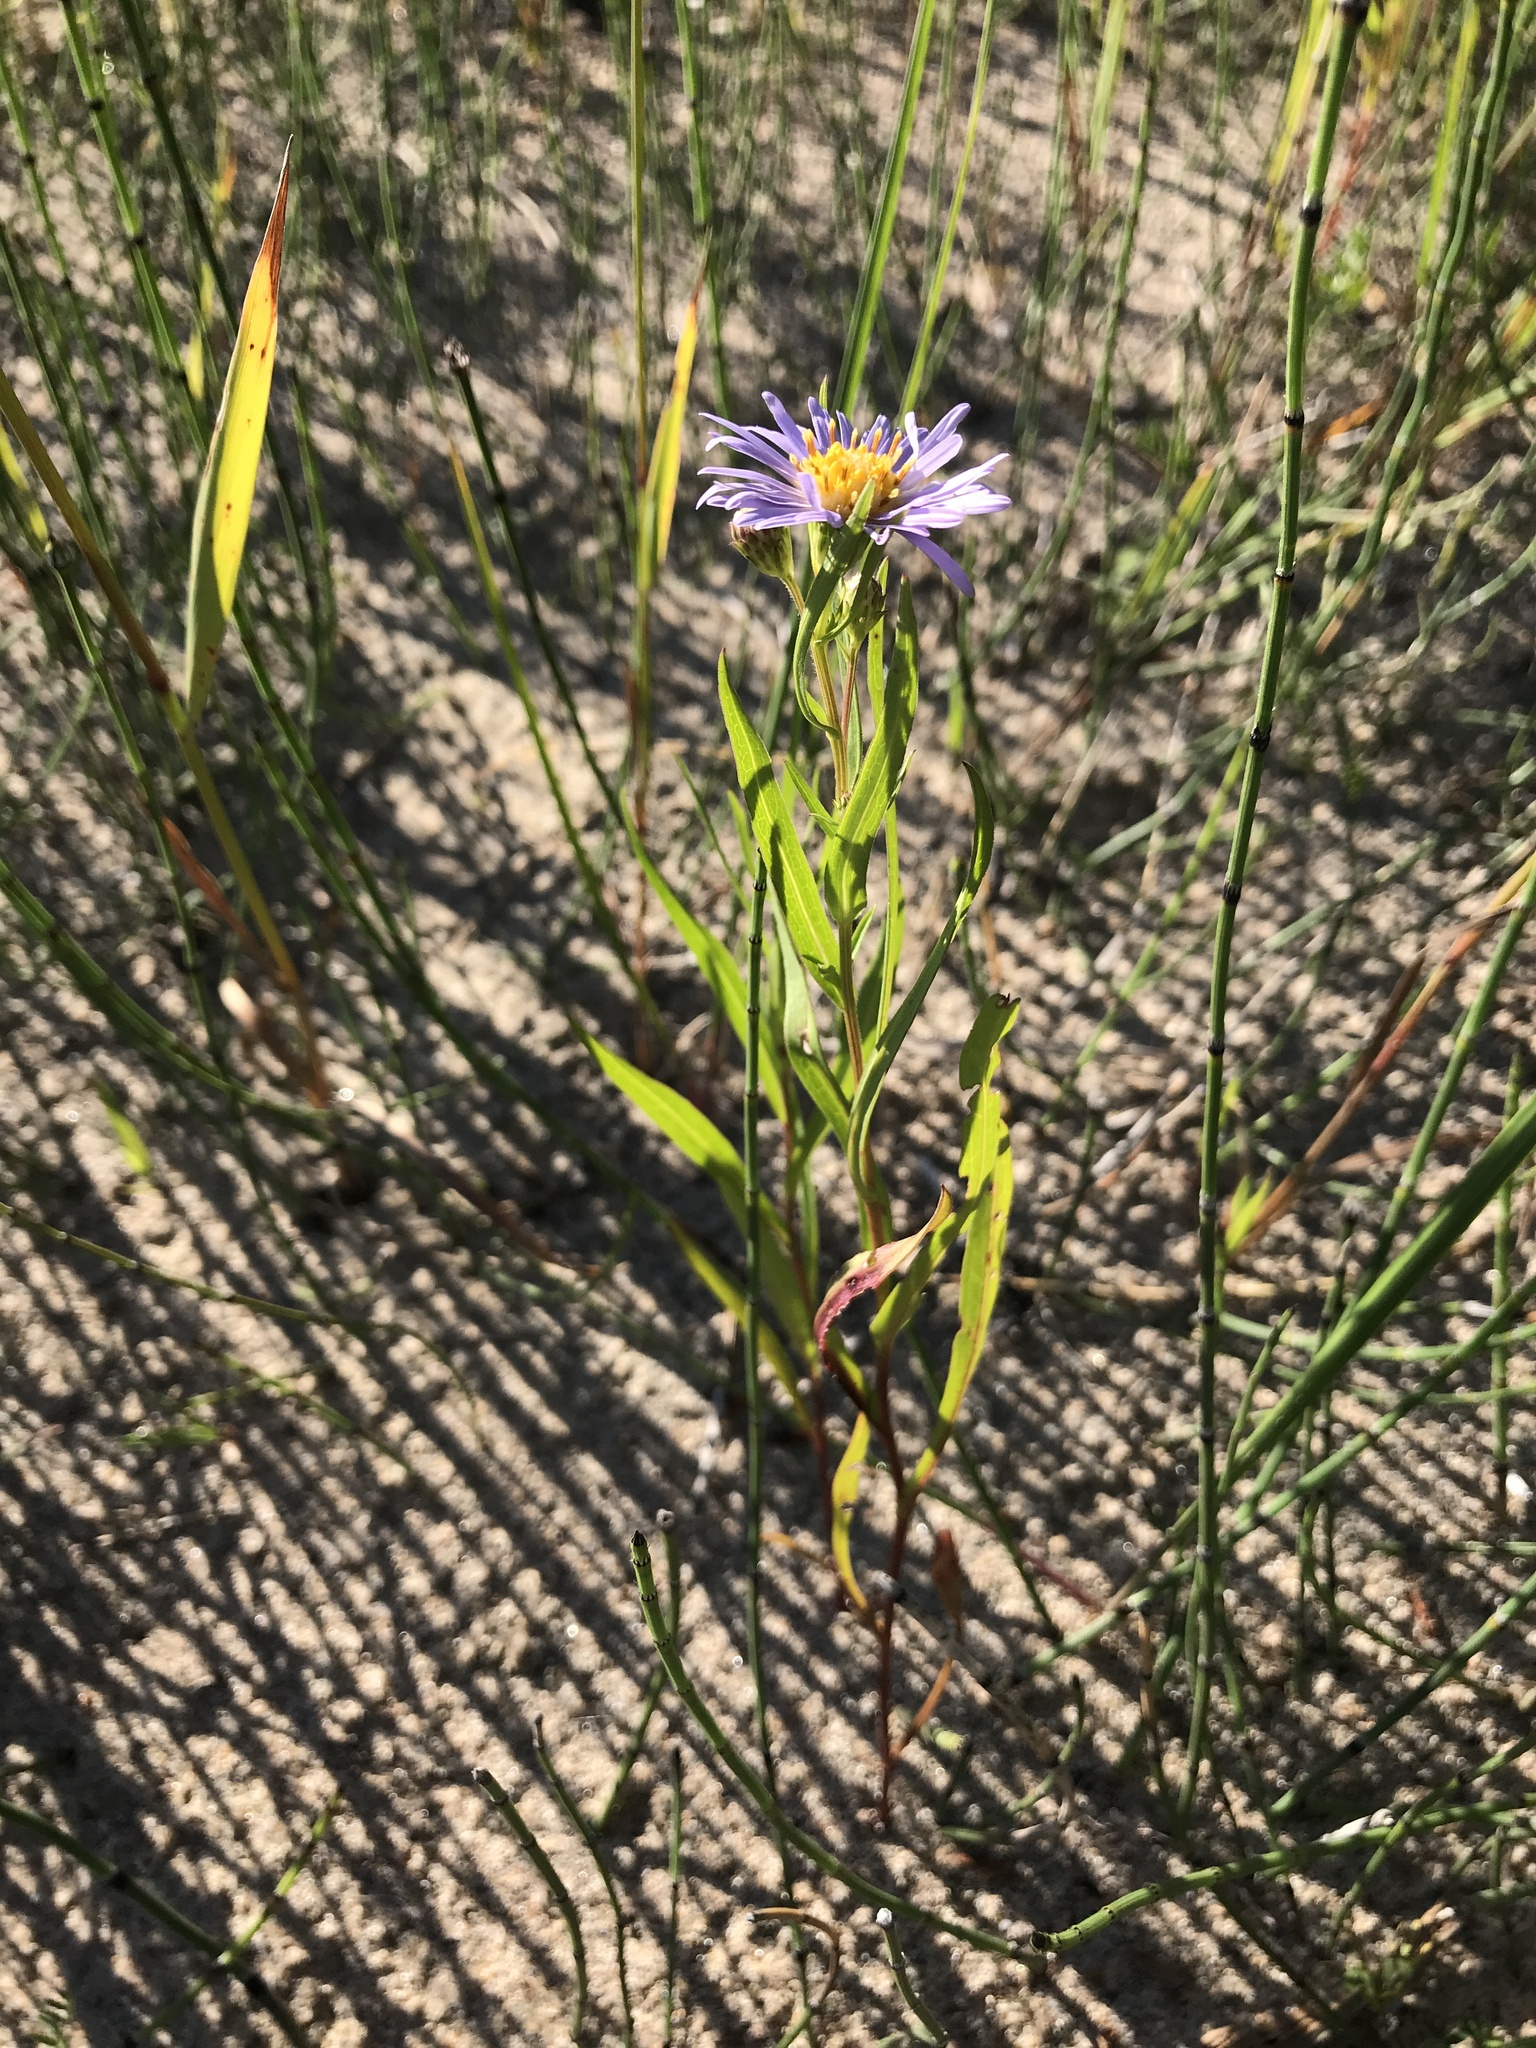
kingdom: Plantae
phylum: Tracheophyta
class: Magnoliopsida
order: Asterales
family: Asteraceae
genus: Symphyotrichum
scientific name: Symphyotrichum robynsianum
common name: Robyns' aster
